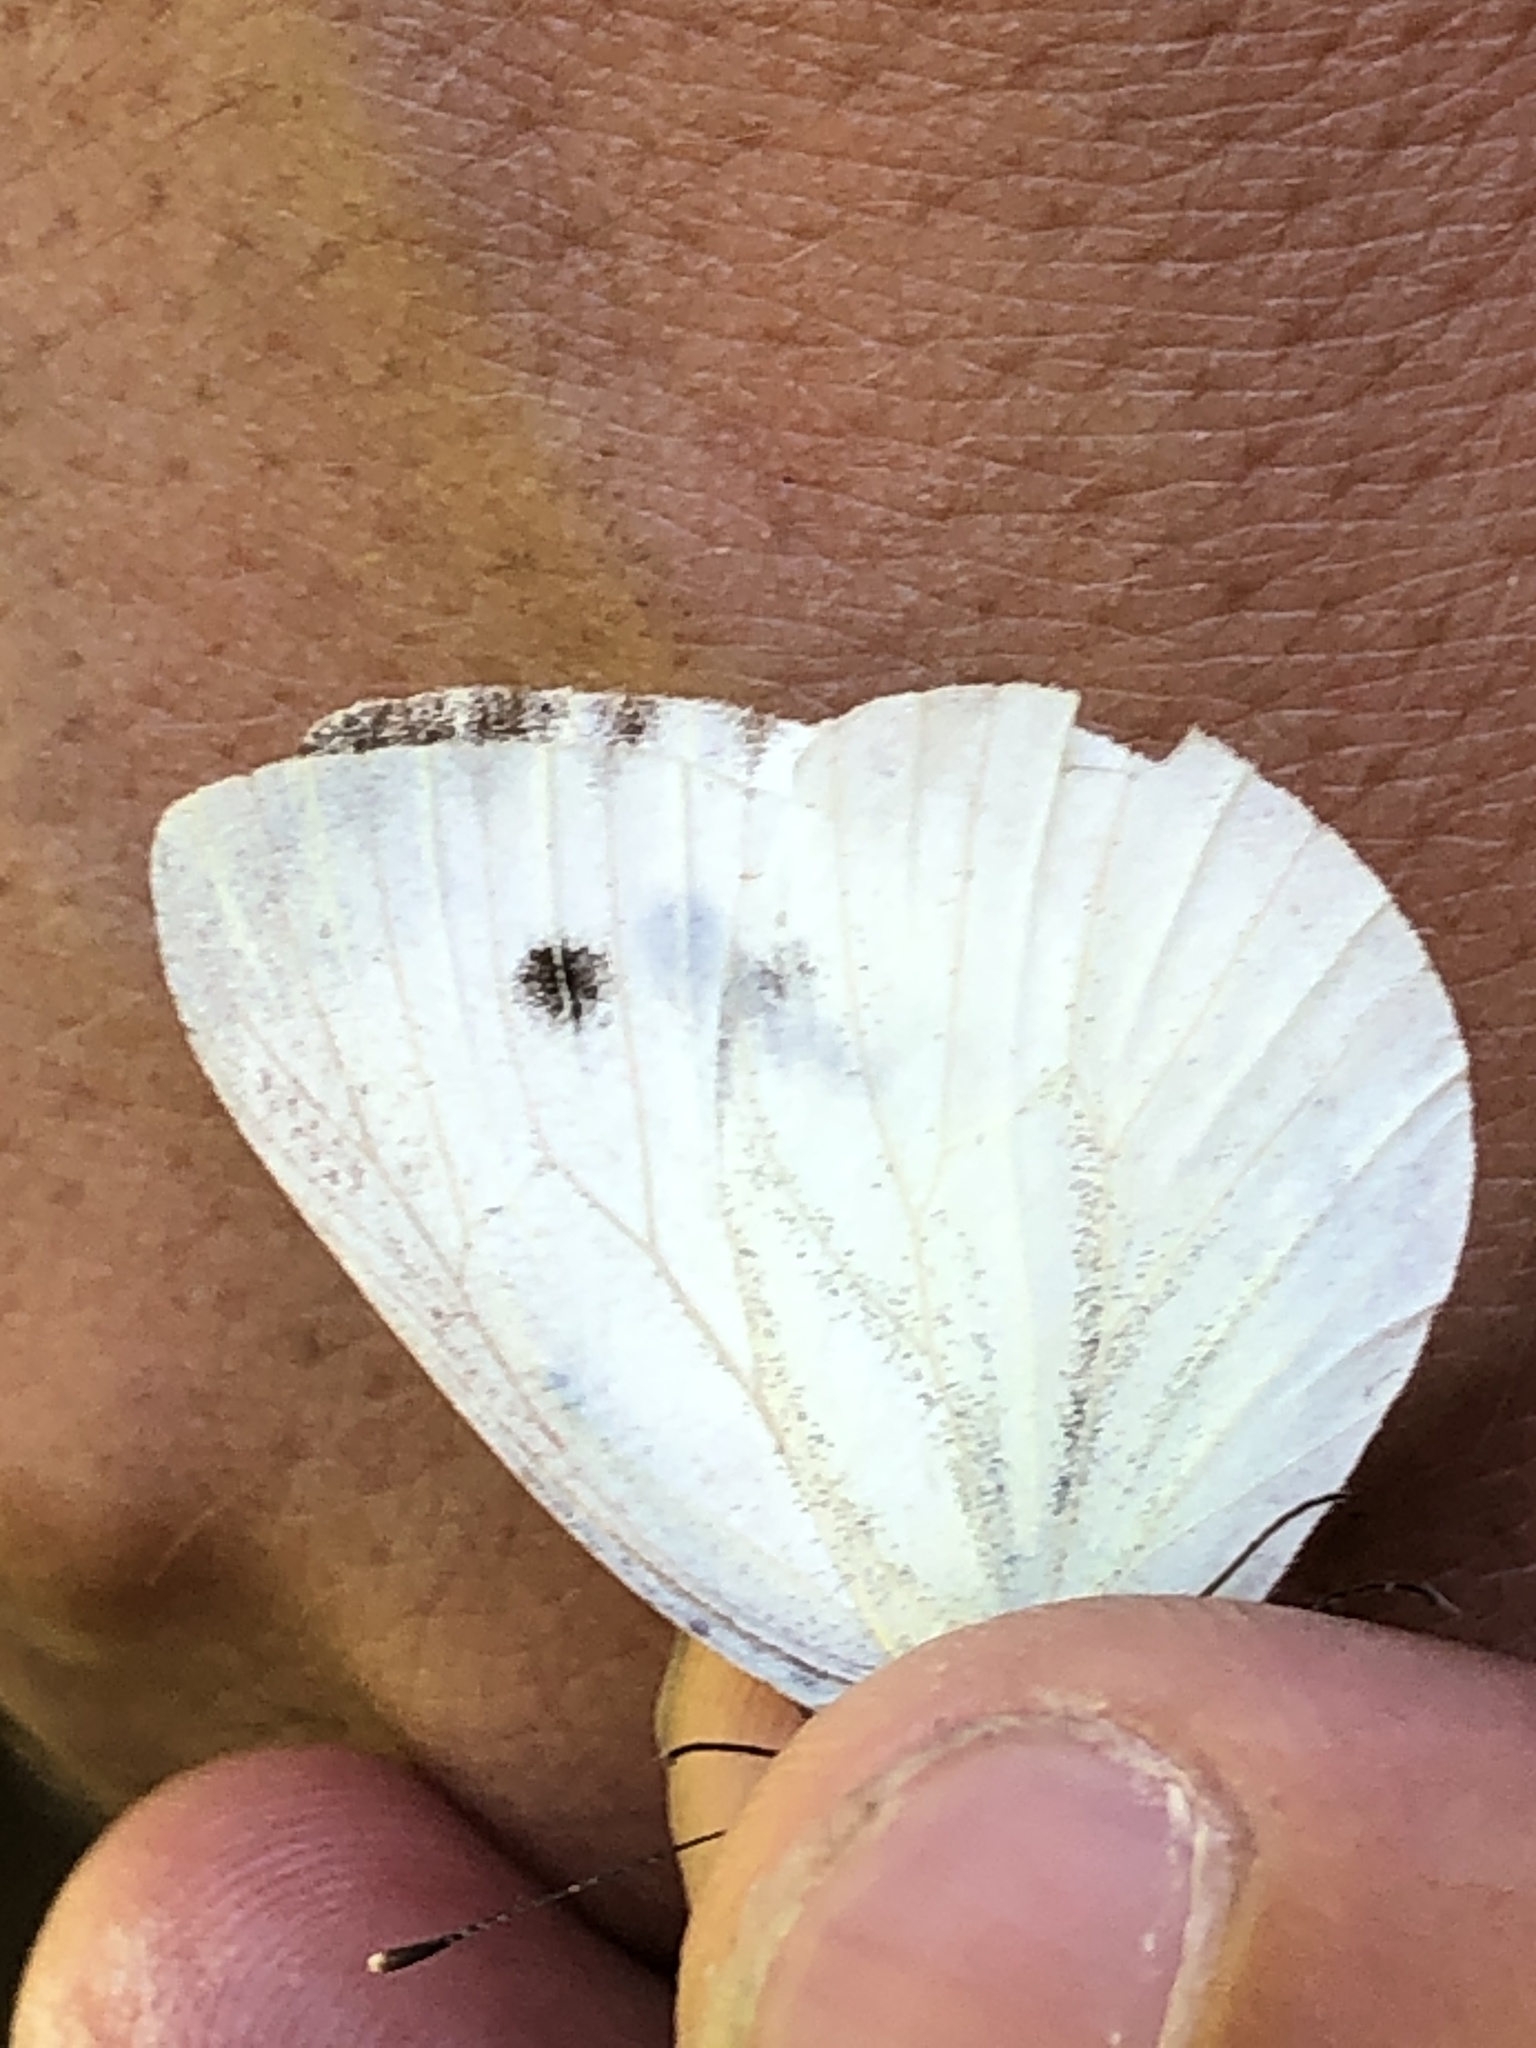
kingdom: Animalia
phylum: Arthropoda
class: Insecta
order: Lepidoptera
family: Pieridae
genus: Pieris
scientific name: Pieris napi
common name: Green-veined white
